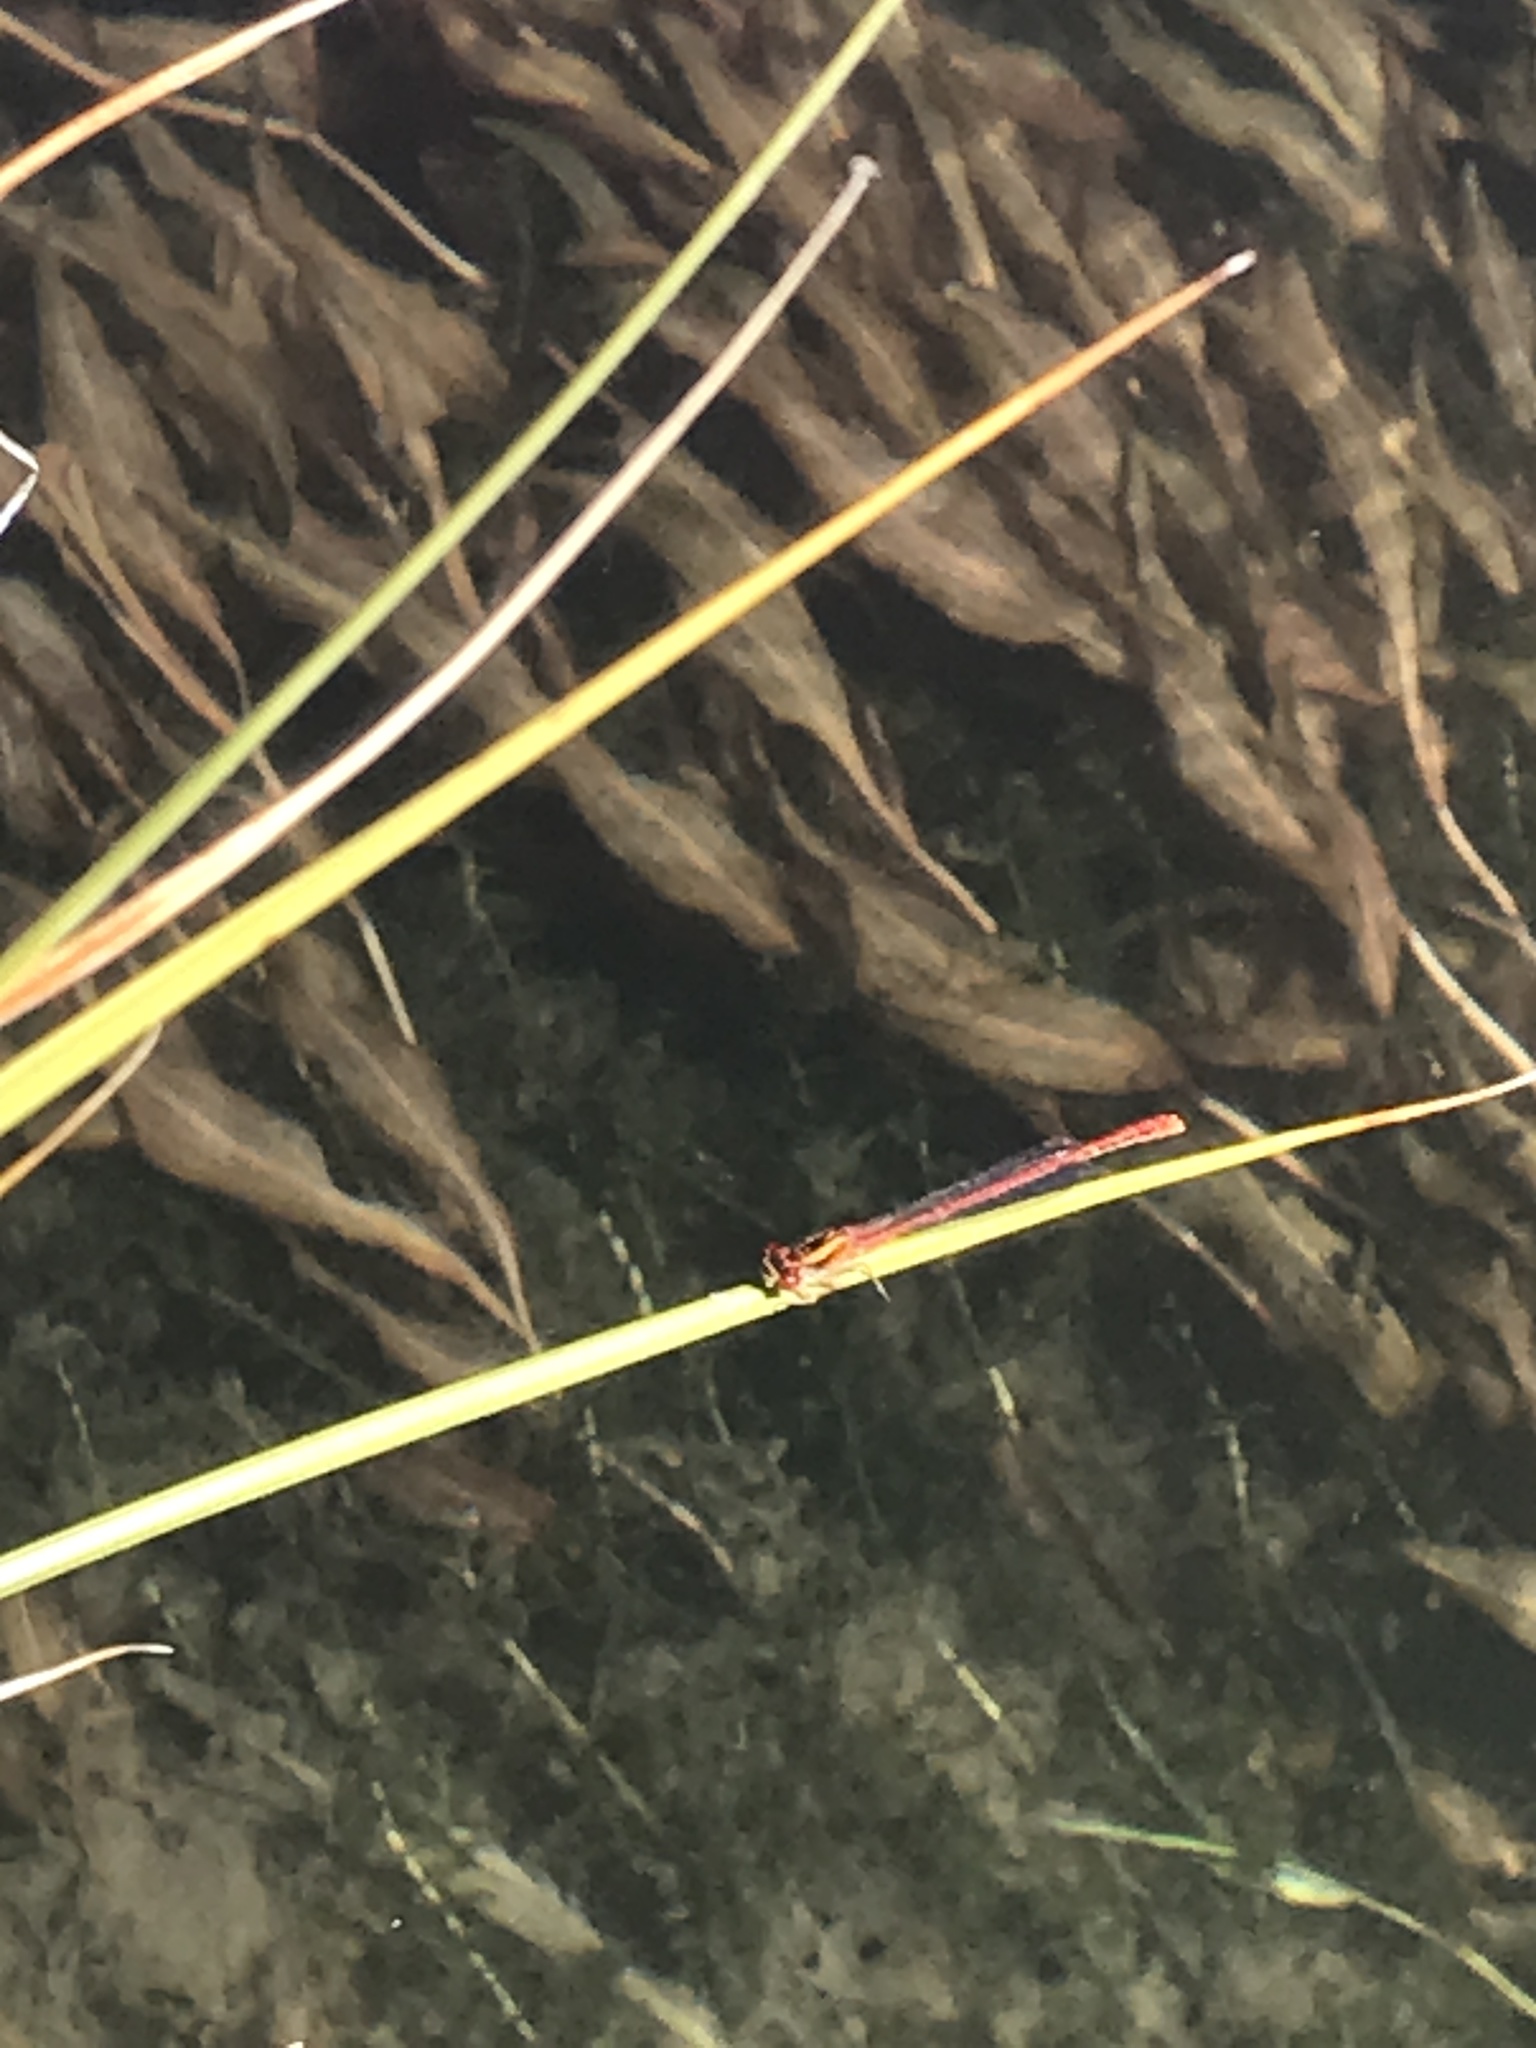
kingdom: Animalia
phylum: Arthropoda
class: Insecta
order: Odonata
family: Coenagrionidae
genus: Xanthocnemis
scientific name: Xanthocnemis zealandica
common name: Common redcoat damselfly
